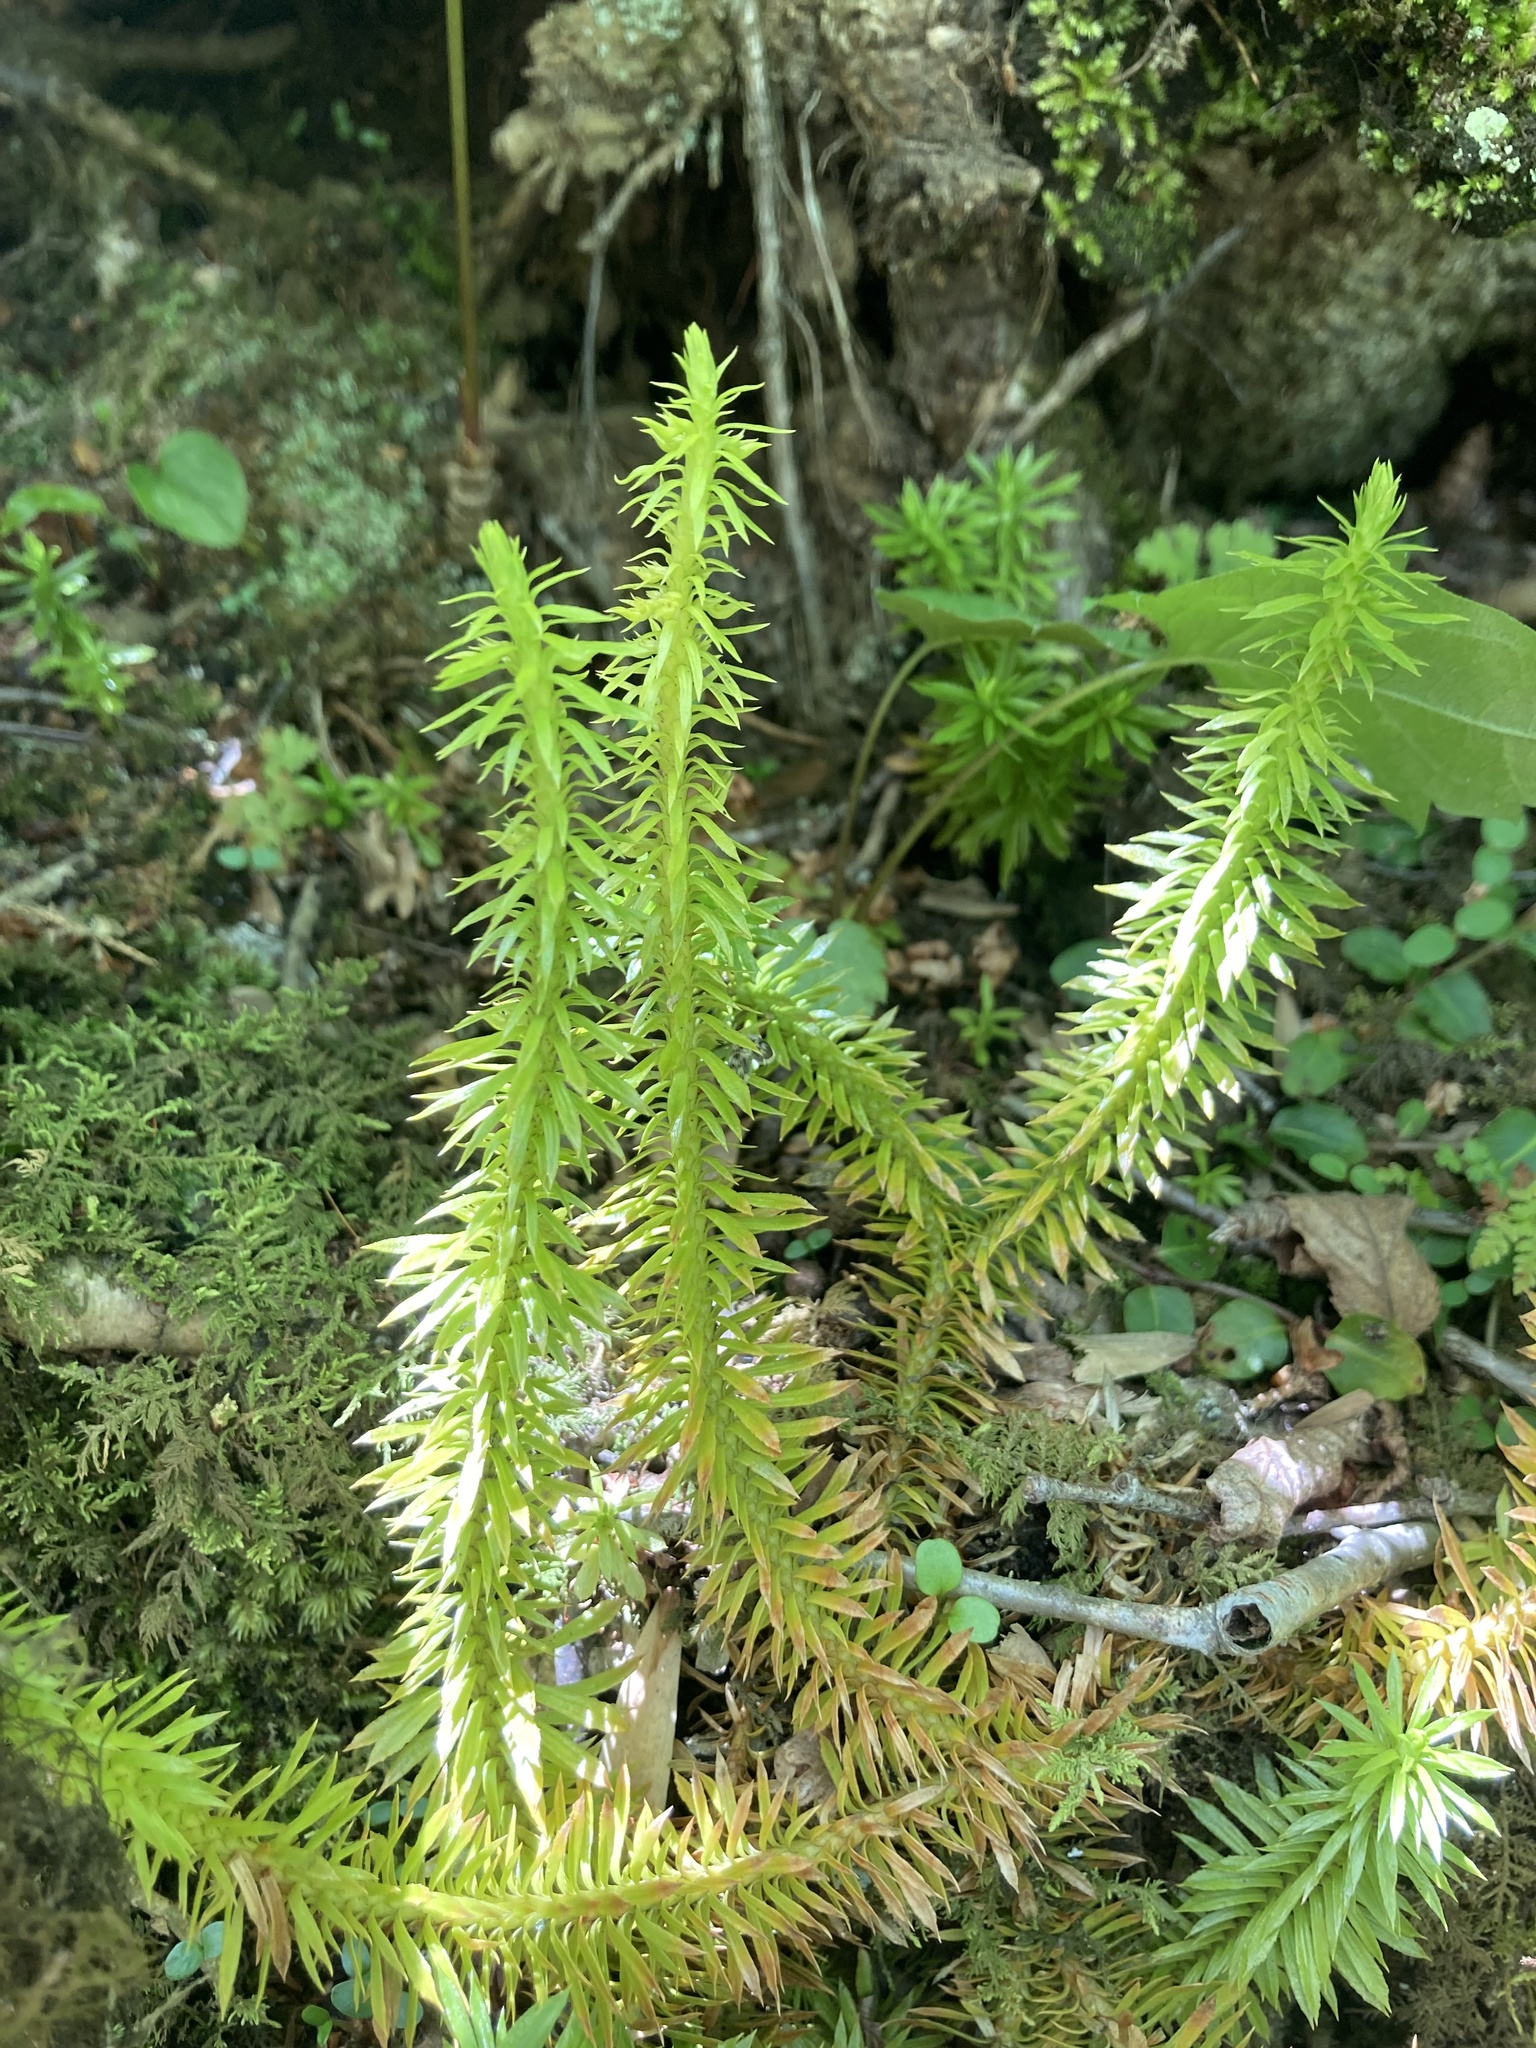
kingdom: Plantae
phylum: Tracheophyta
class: Lycopodiopsida
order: Lycopodiales
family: Lycopodiaceae
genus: Huperzia
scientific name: Huperzia lucidula
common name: Shining clubmoss
